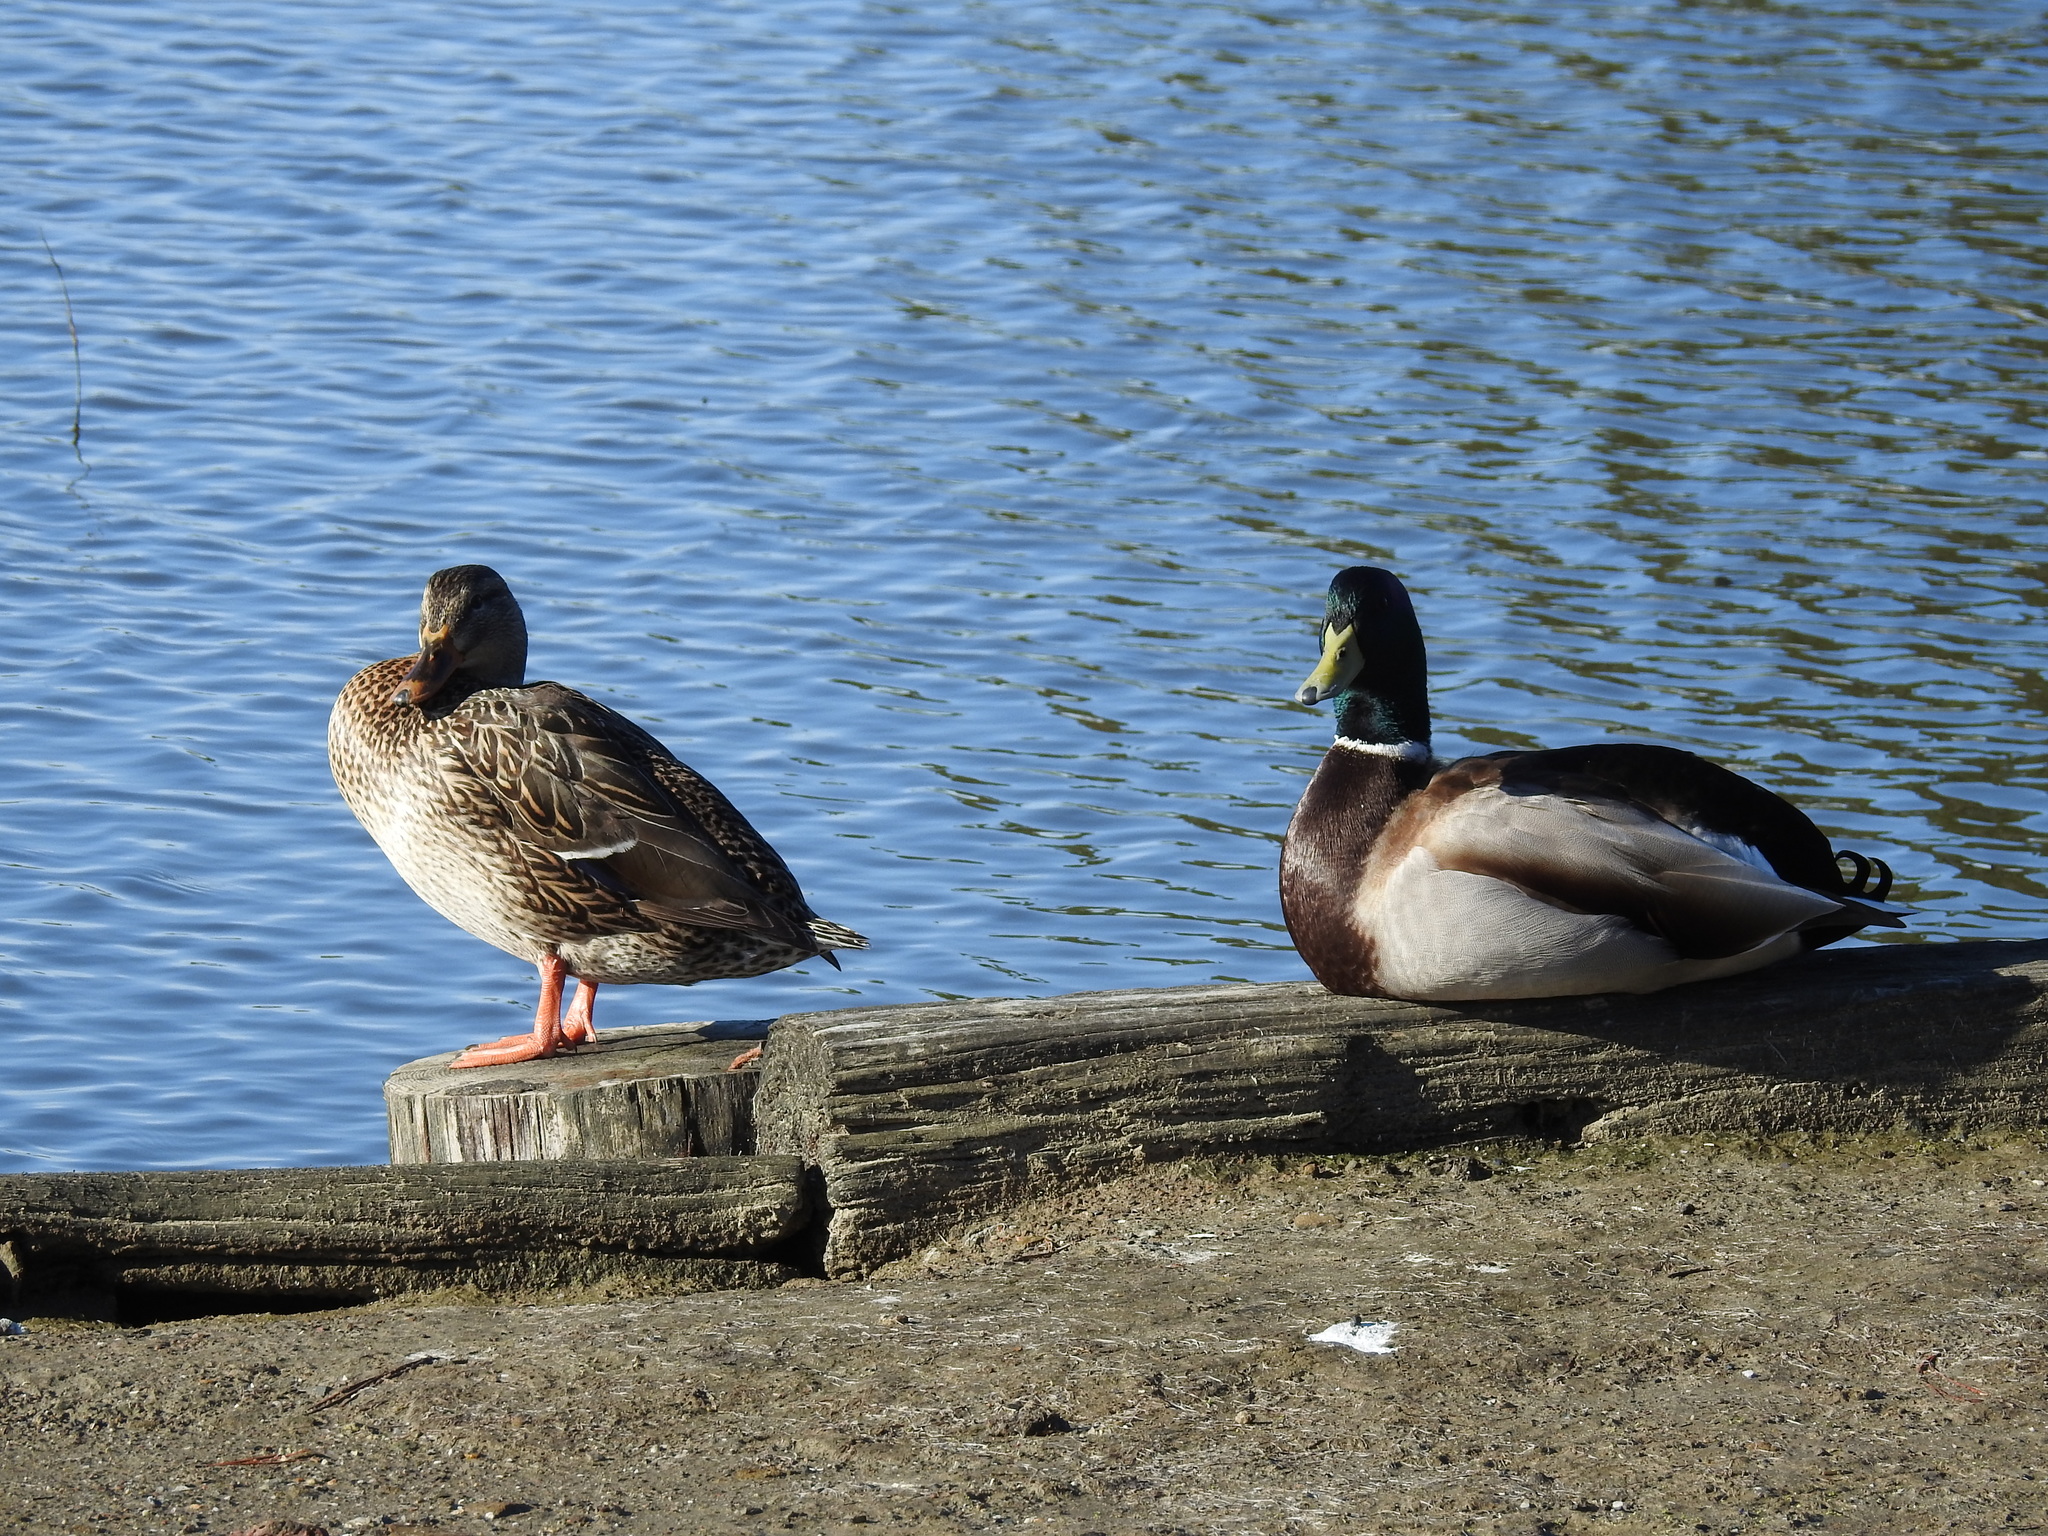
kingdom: Animalia
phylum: Chordata
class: Aves
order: Anseriformes
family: Anatidae
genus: Anas
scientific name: Anas platyrhynchos
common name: Mallard
